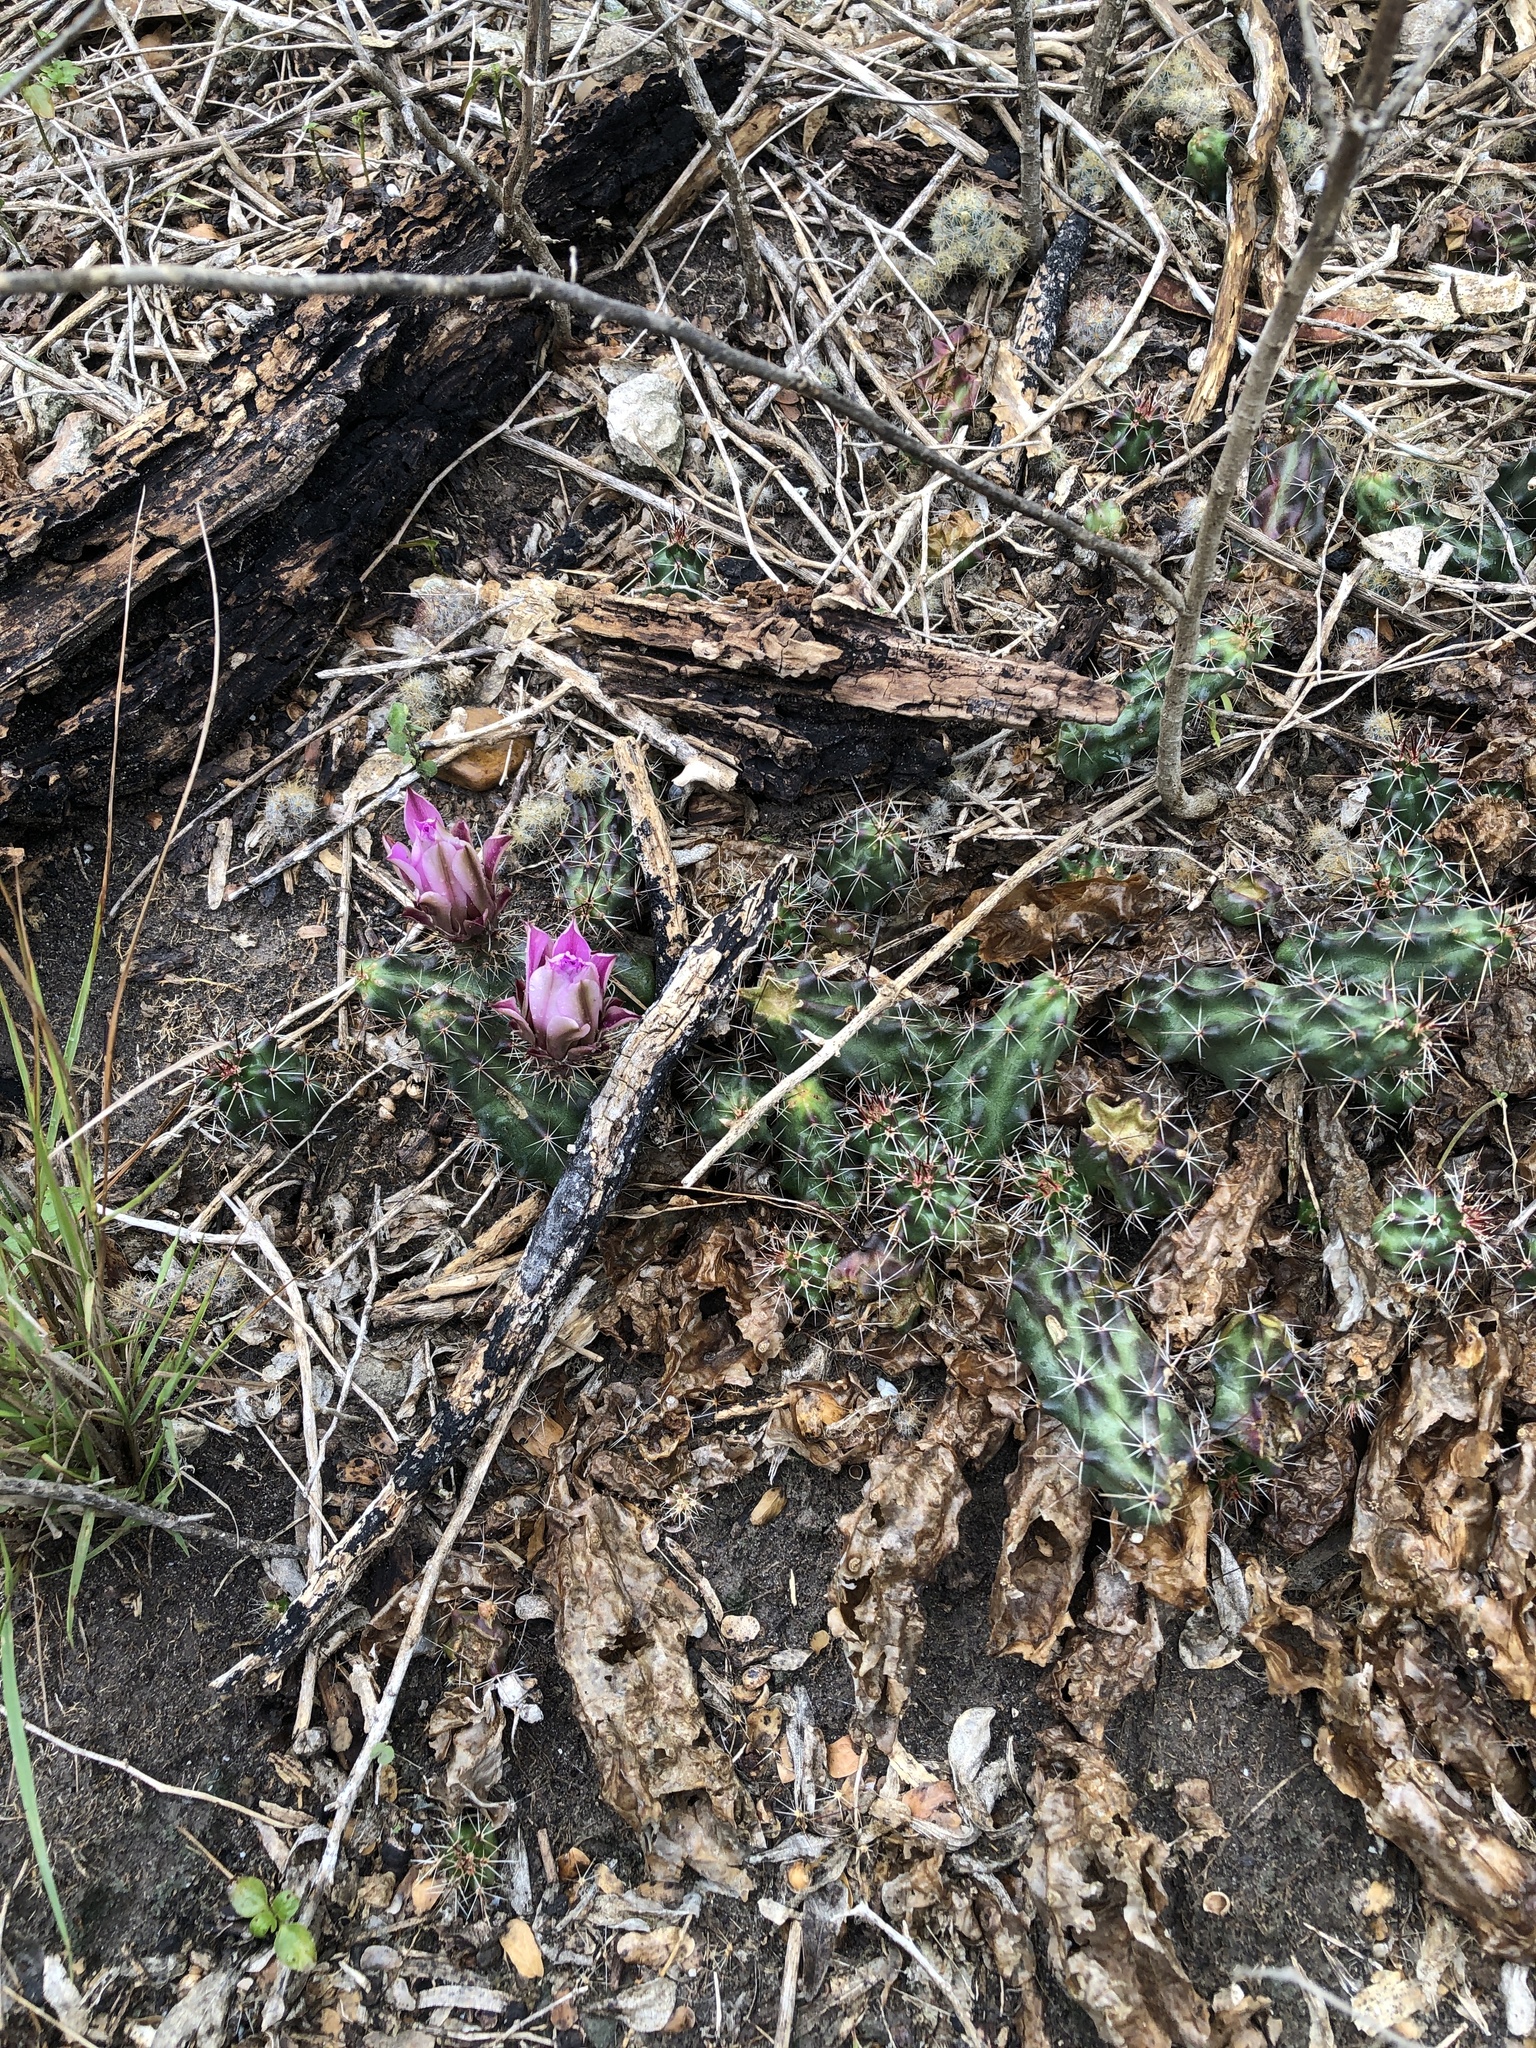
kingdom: Plantae
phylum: Tracheophyta
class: Magnoliopsida
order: Caryophyllales
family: Cactaceae
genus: Echinocereus
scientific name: Echinocereus berlandieri
